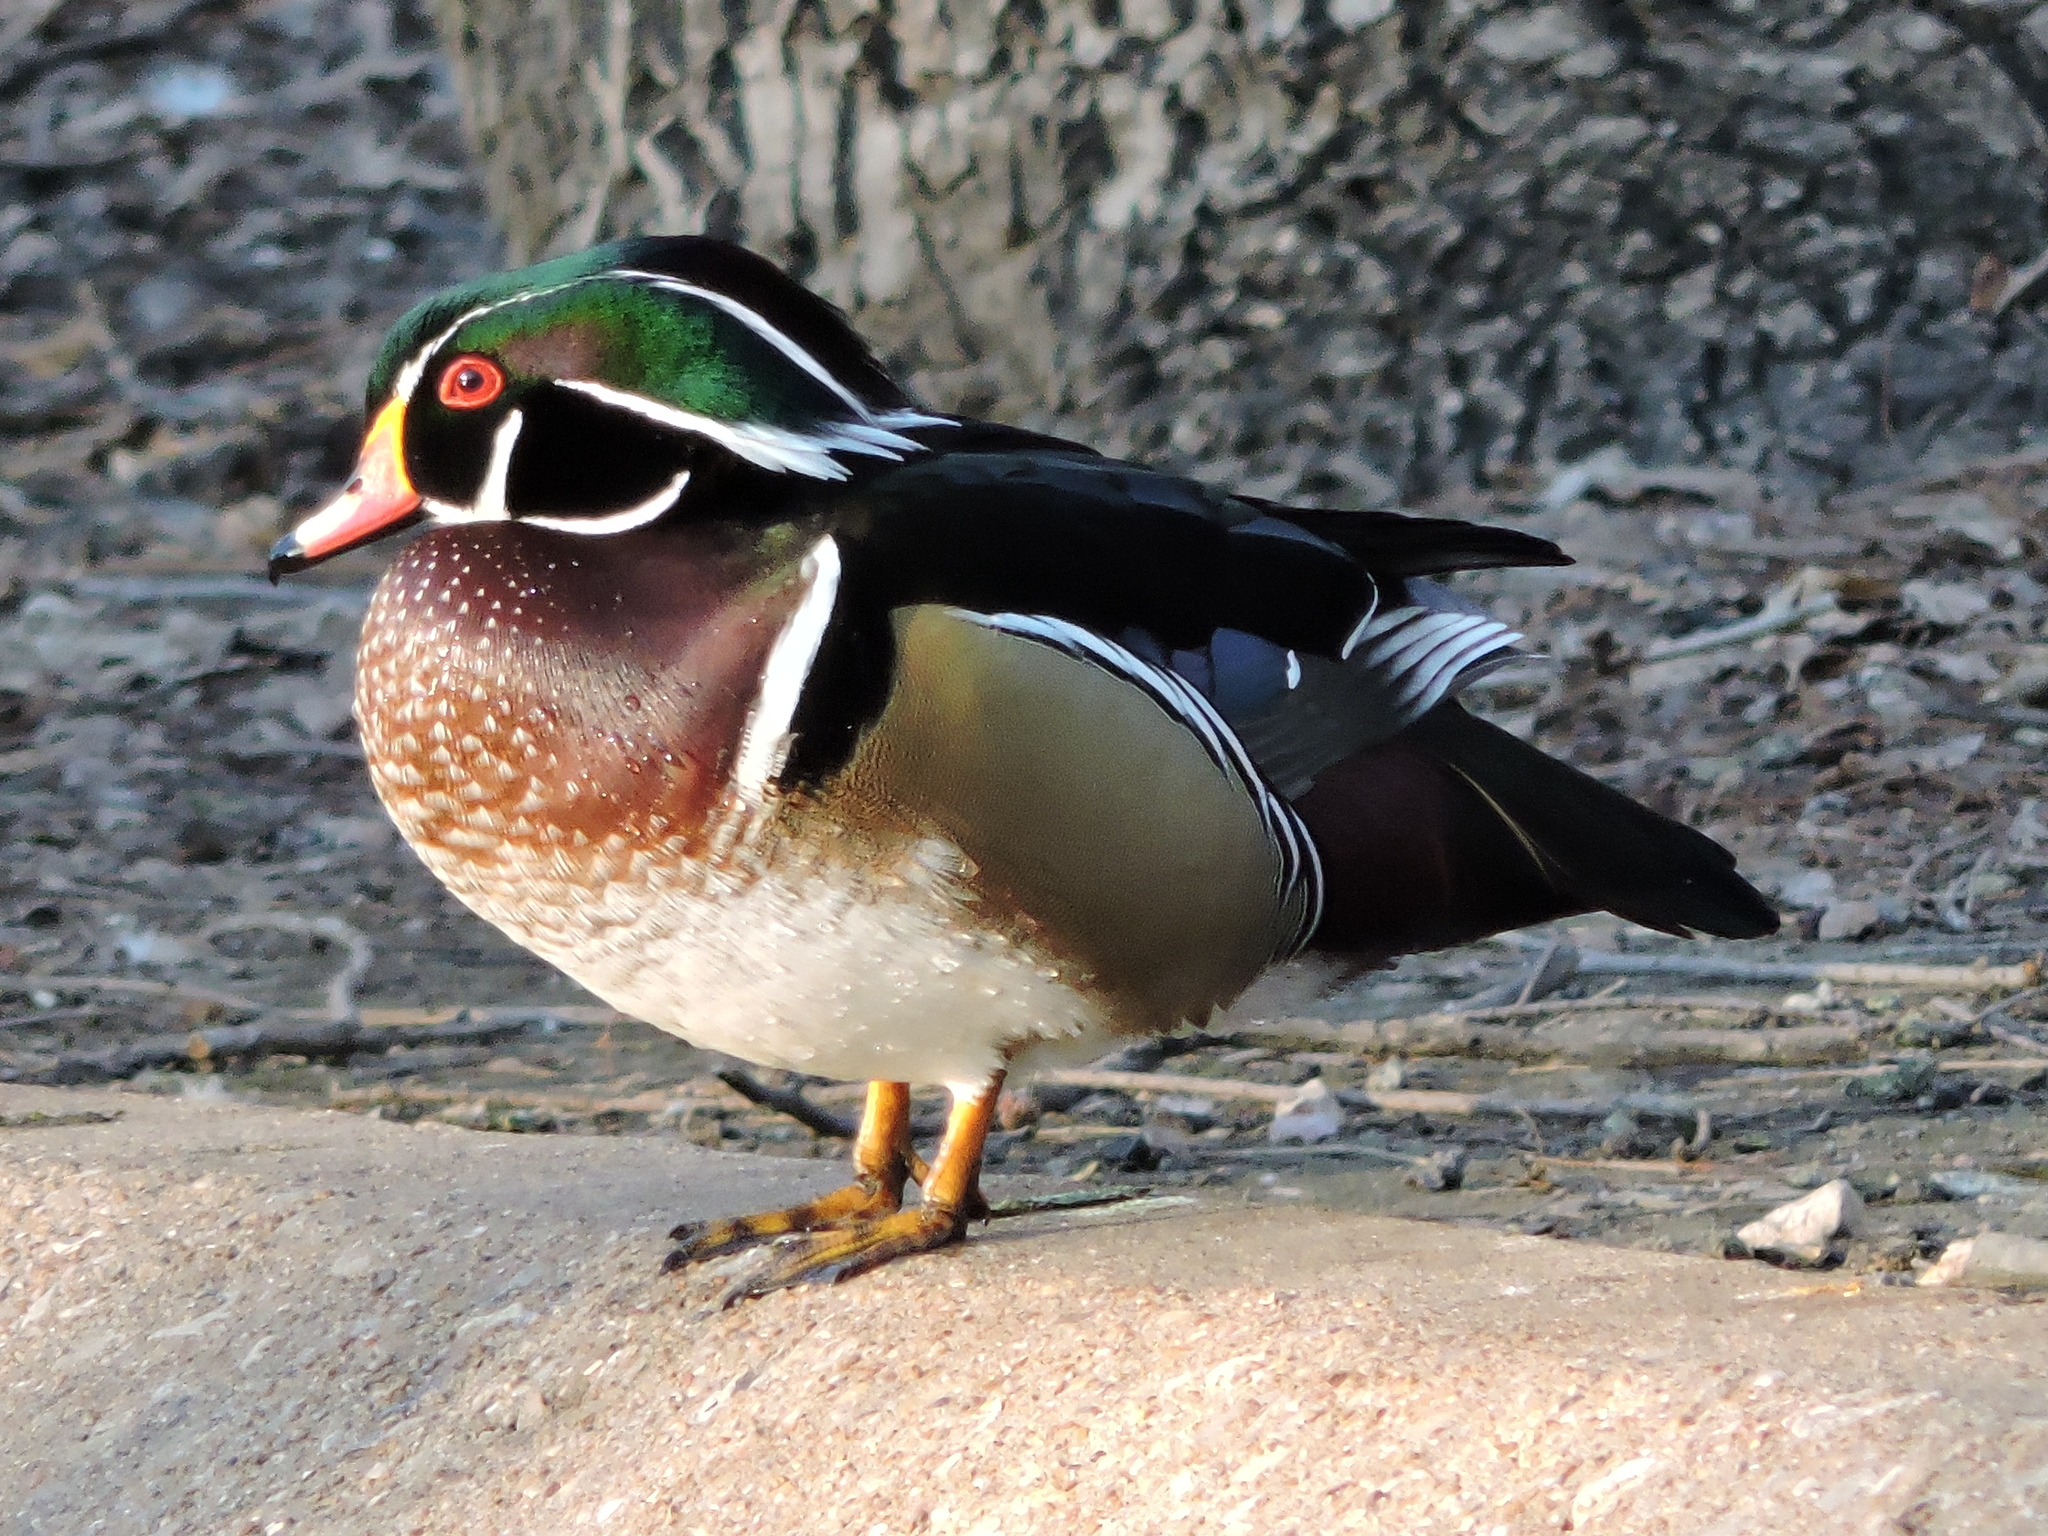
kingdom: Animalia
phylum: Chordata
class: Aves
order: Anseriformes
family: Anatidae
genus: Aix
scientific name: Aix sponsa
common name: Wood duck
